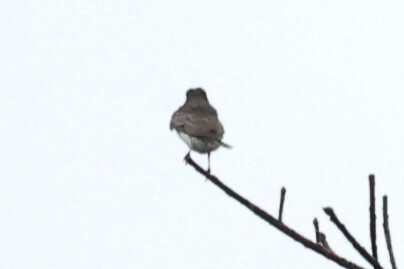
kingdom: Animalia
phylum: Chordata
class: Aves
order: Passeriformes
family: Tyrannidae
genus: Tyrannus
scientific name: Tyrannus tyrannus
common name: Eastern kingbird
